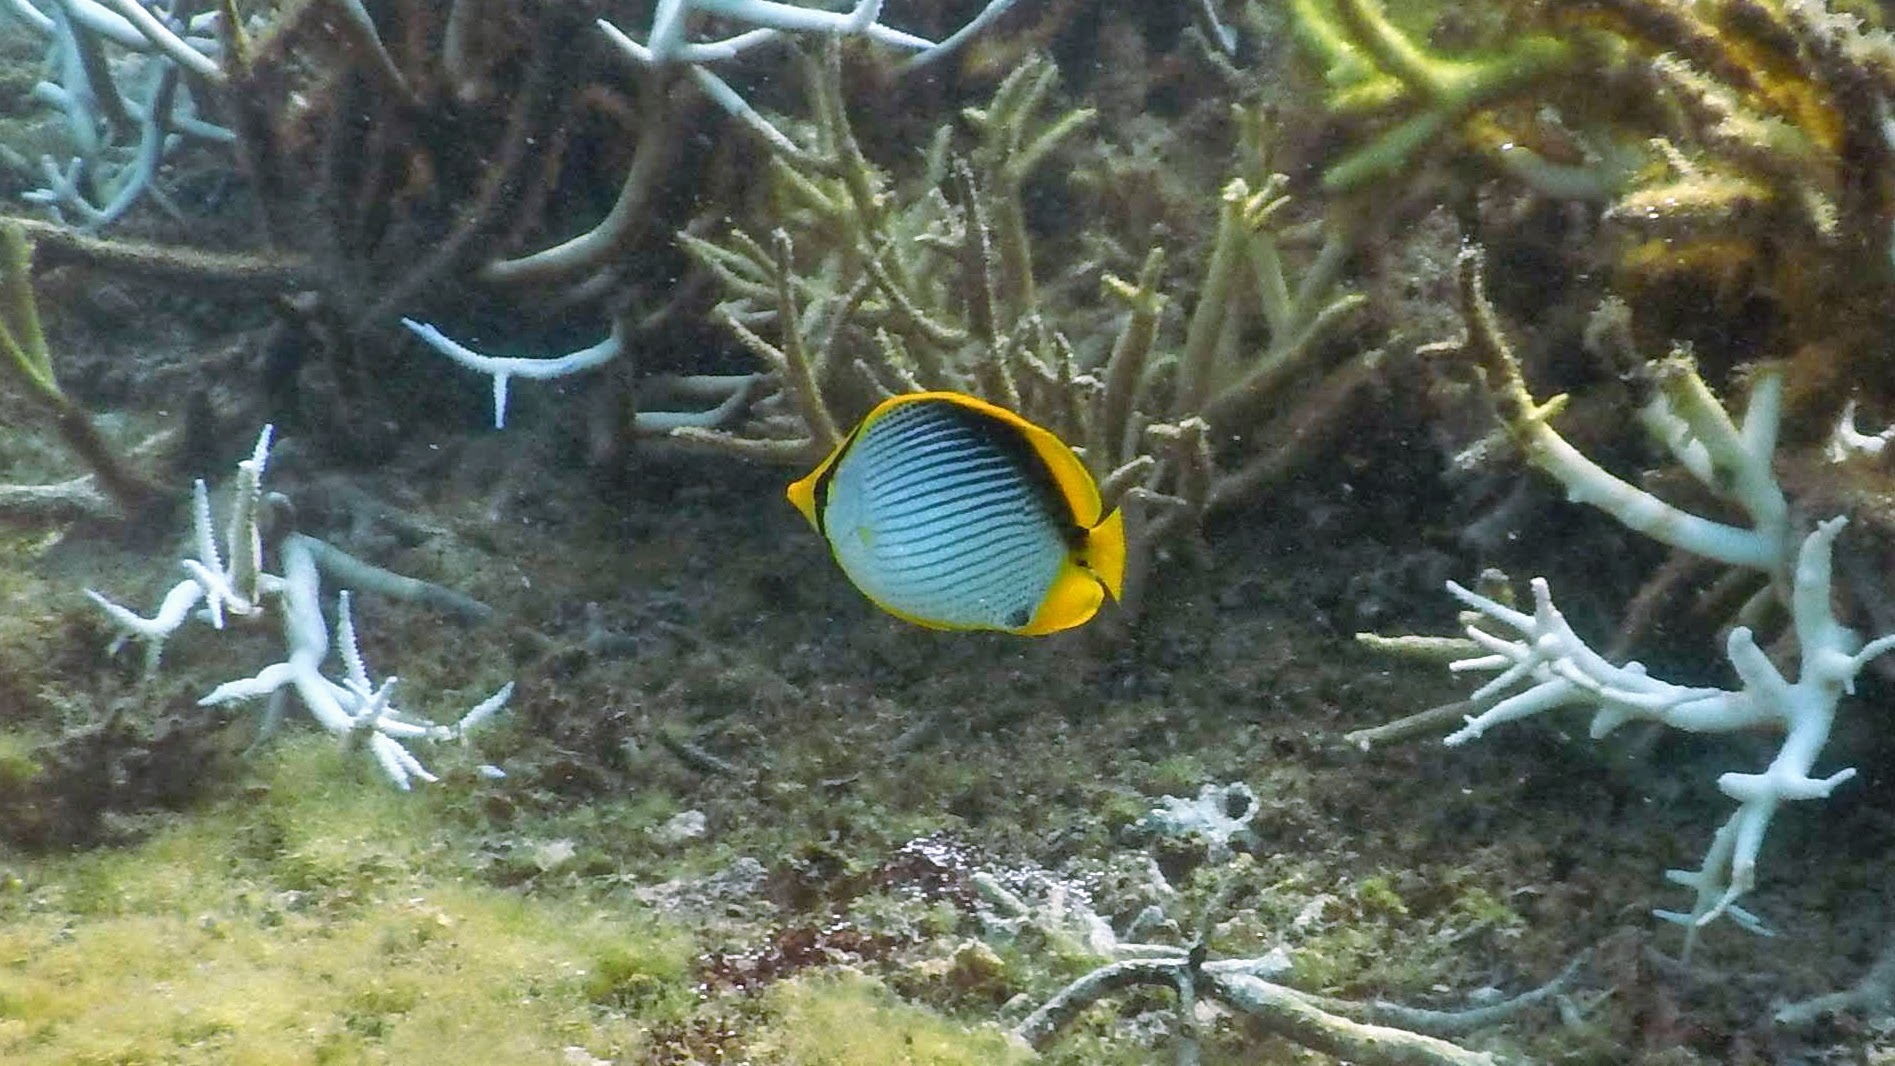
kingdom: Animalia
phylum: Chordata
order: Perciformes
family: Chaetodontidae
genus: Chaetodon
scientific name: Chaetodon melannotus
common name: Blackback butterflyfish
